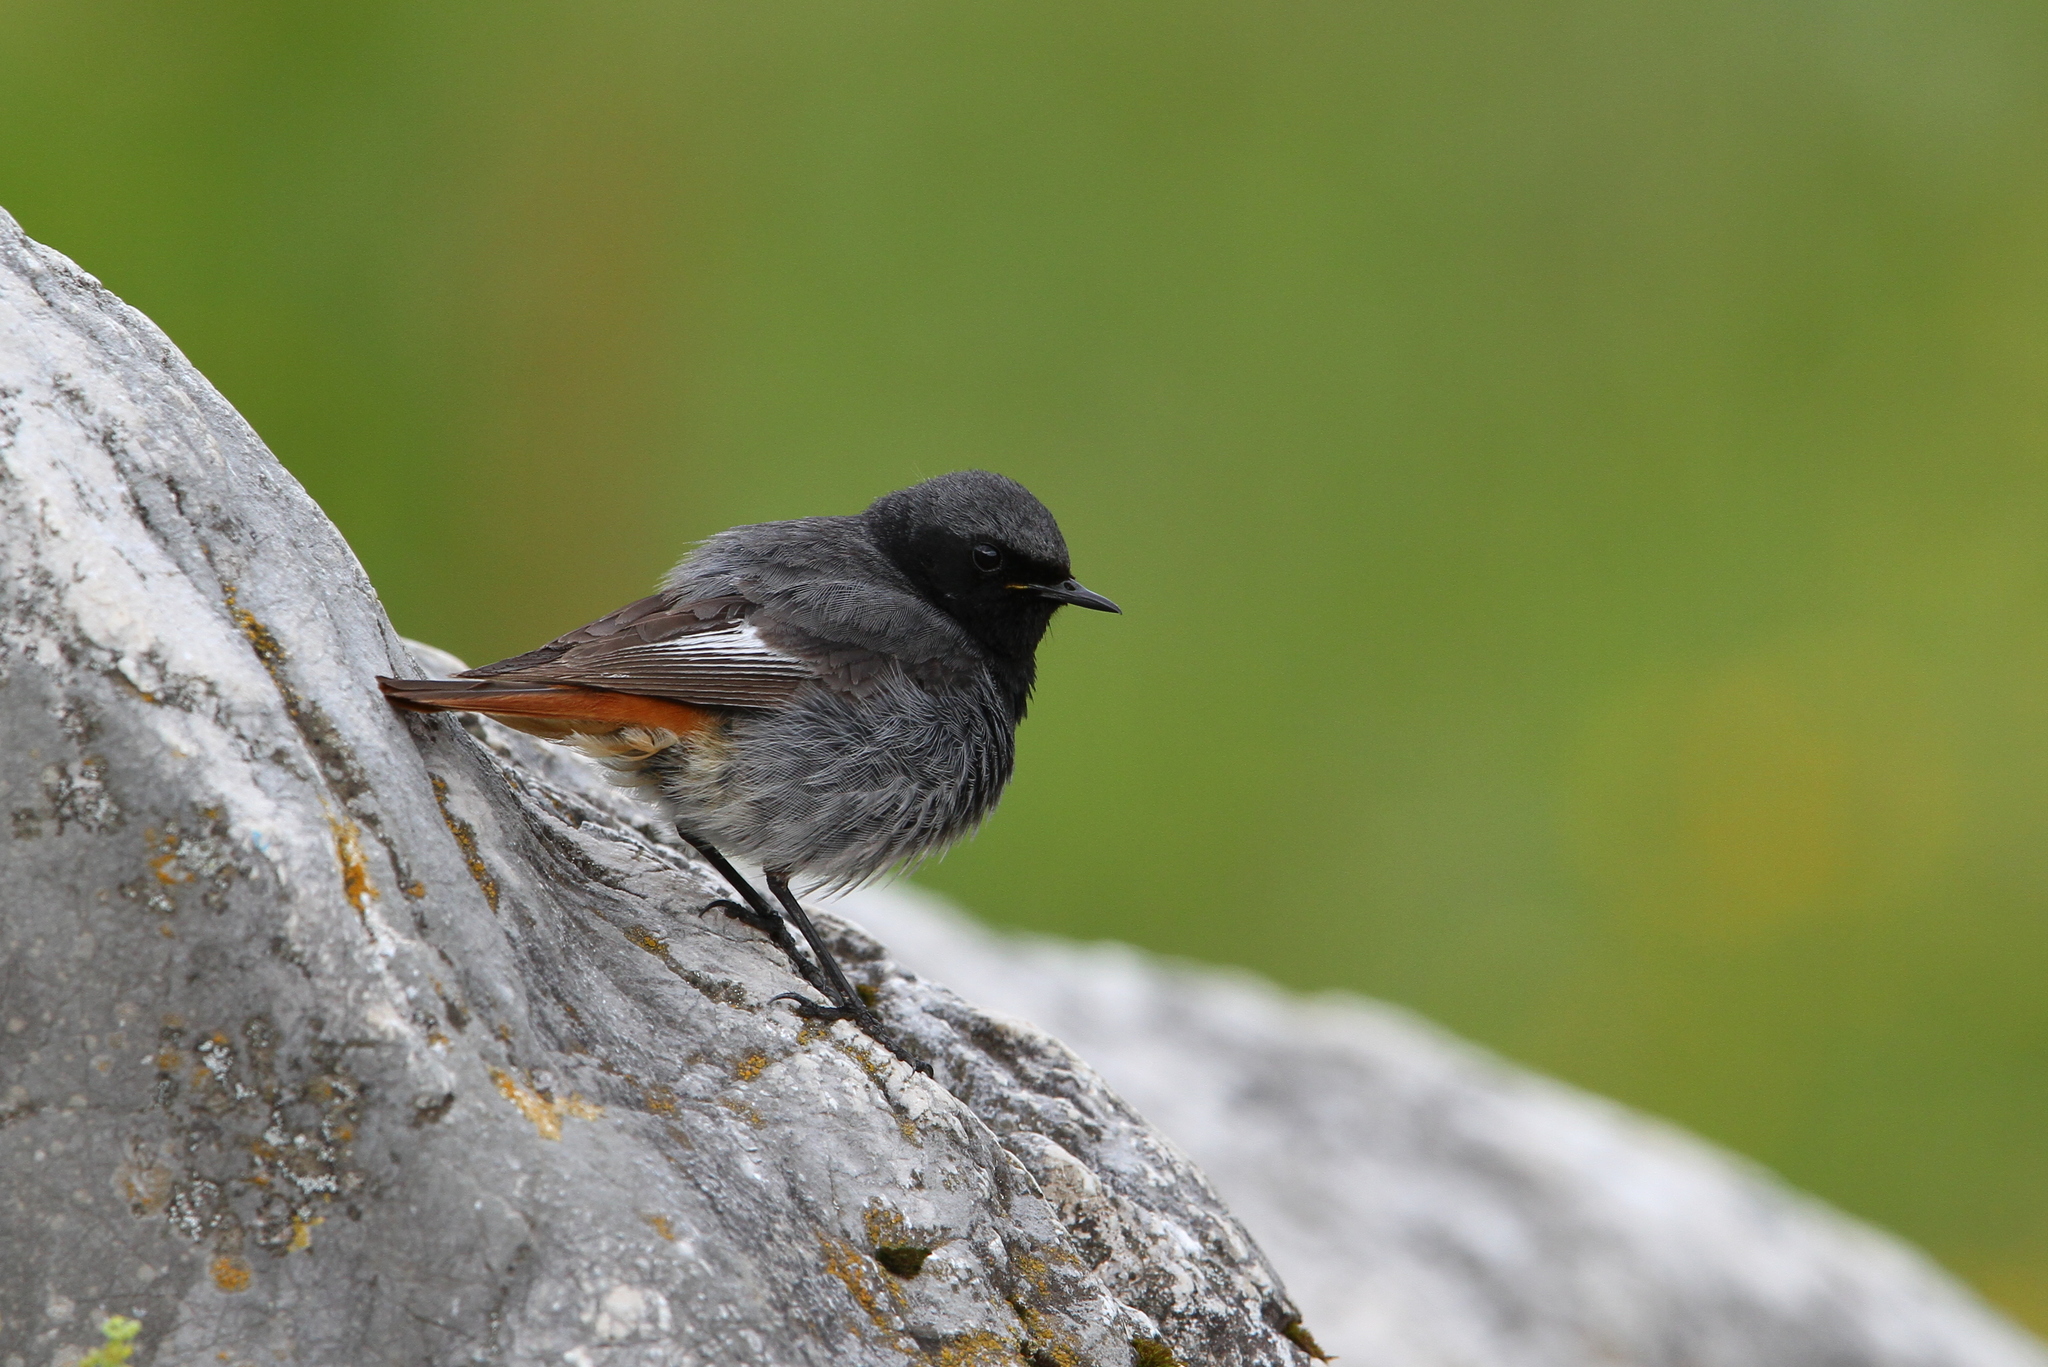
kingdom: Animalia
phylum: Chordata
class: Aves
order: Passeriformes
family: Muscicapidae
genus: Phoenicurus
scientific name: Phoenicurus ochruros
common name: Black redstart
